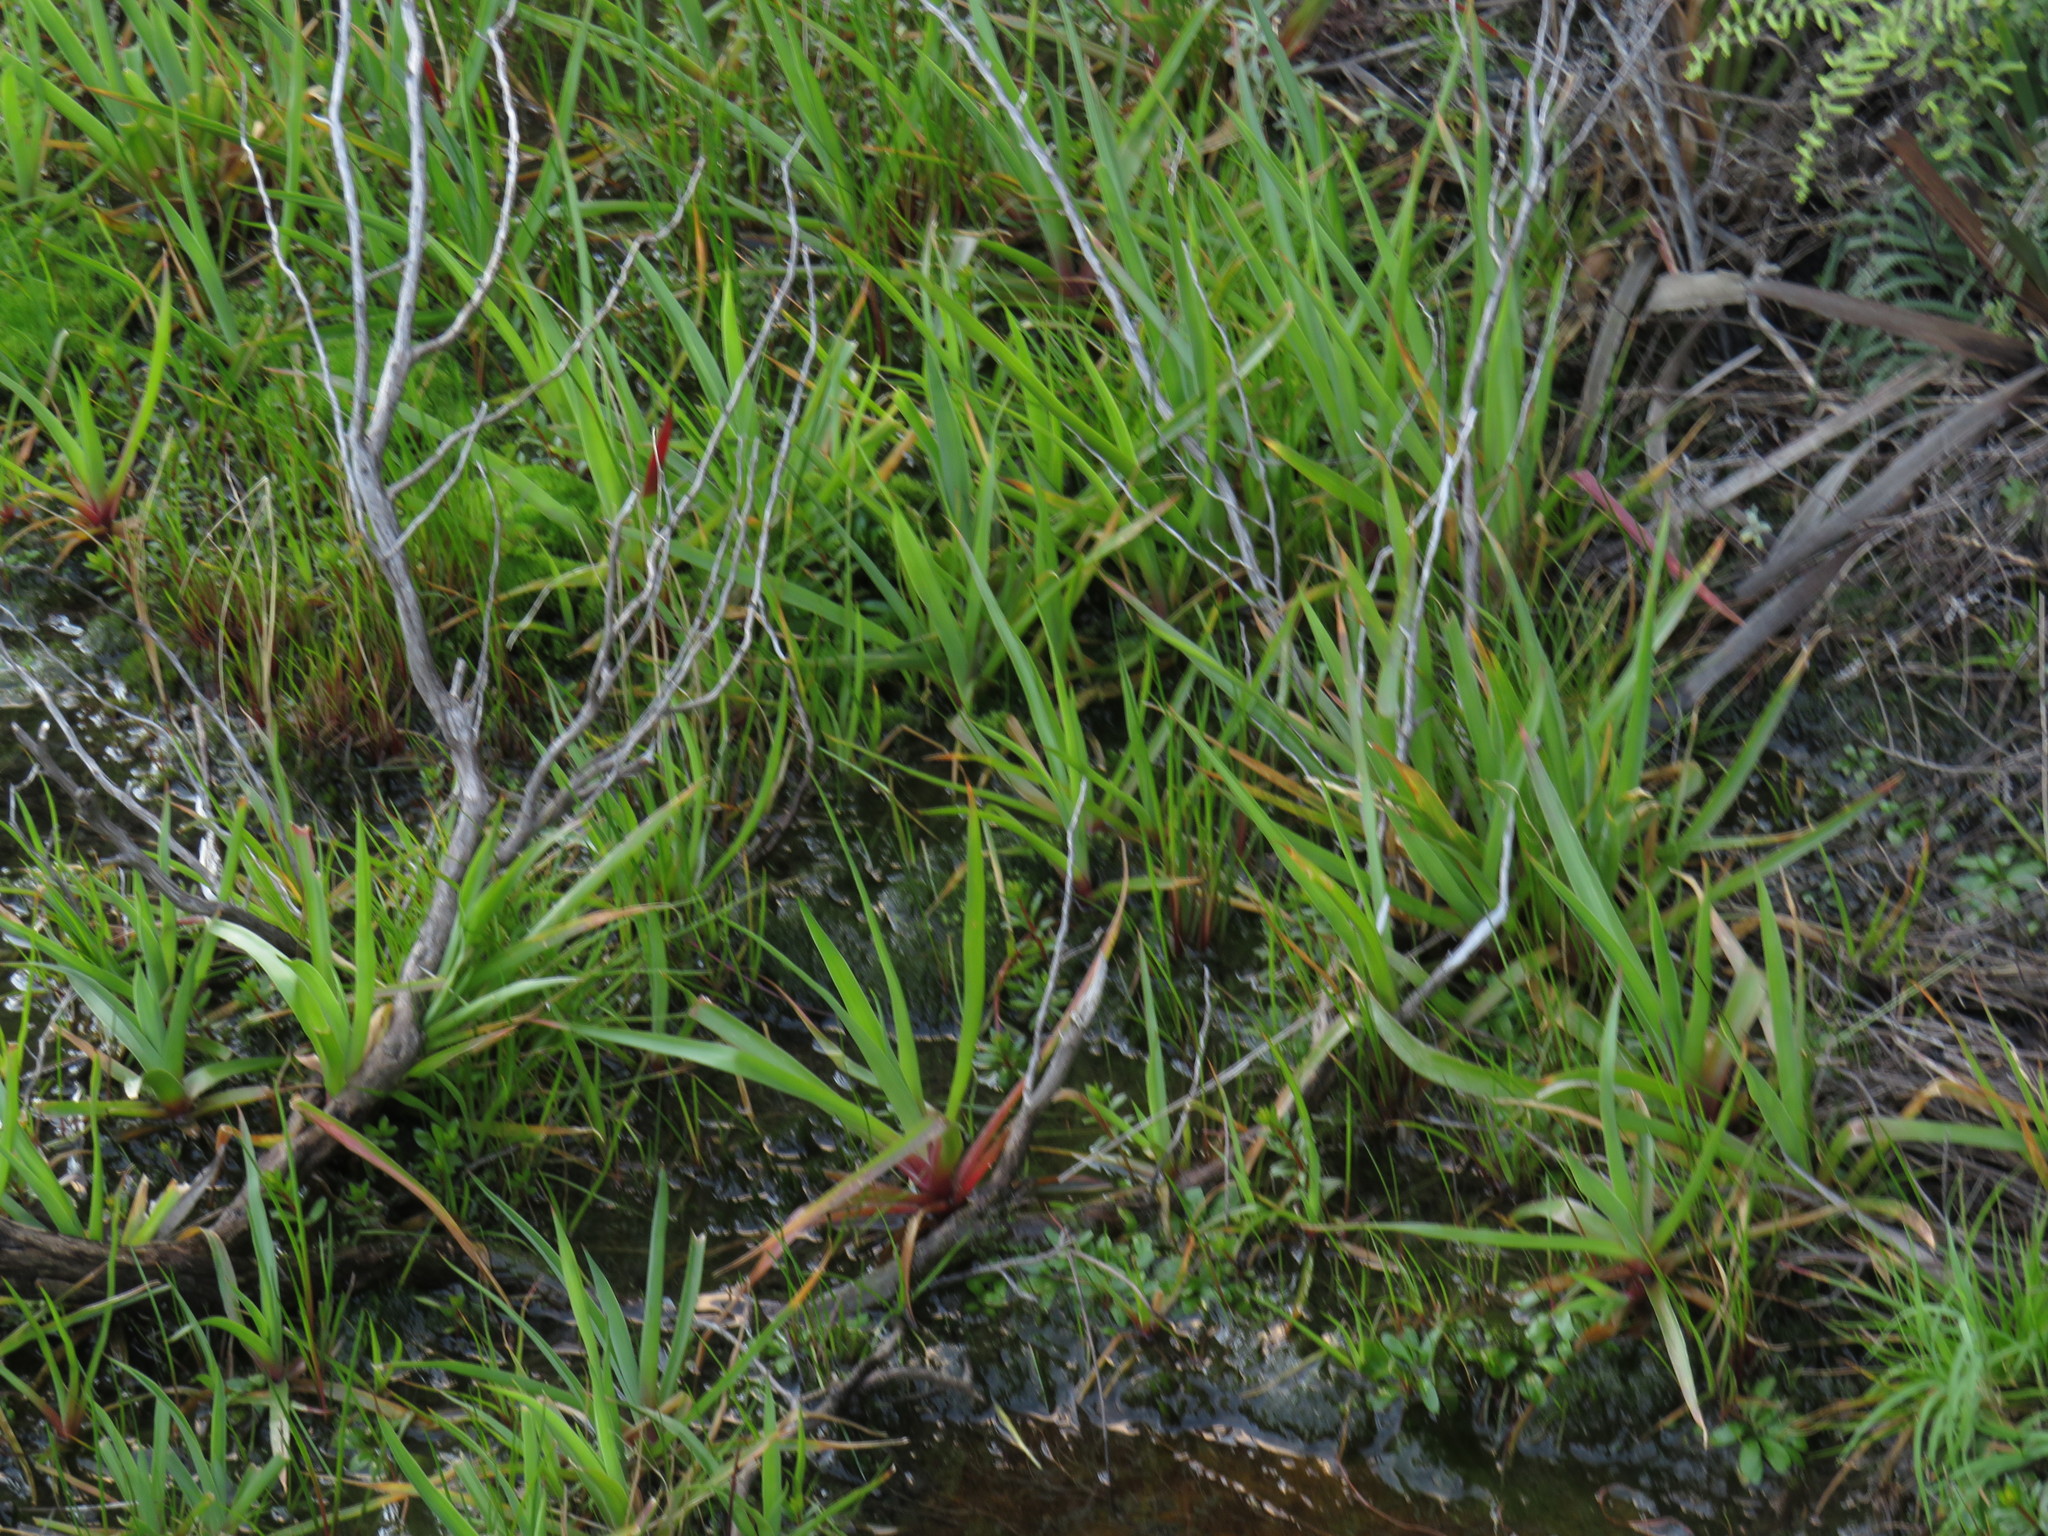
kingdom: Plantae
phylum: Tracheophyta
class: Liliopsida
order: Poales
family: Juncaceae
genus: Juncus
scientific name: Juncus lomatophyllus
